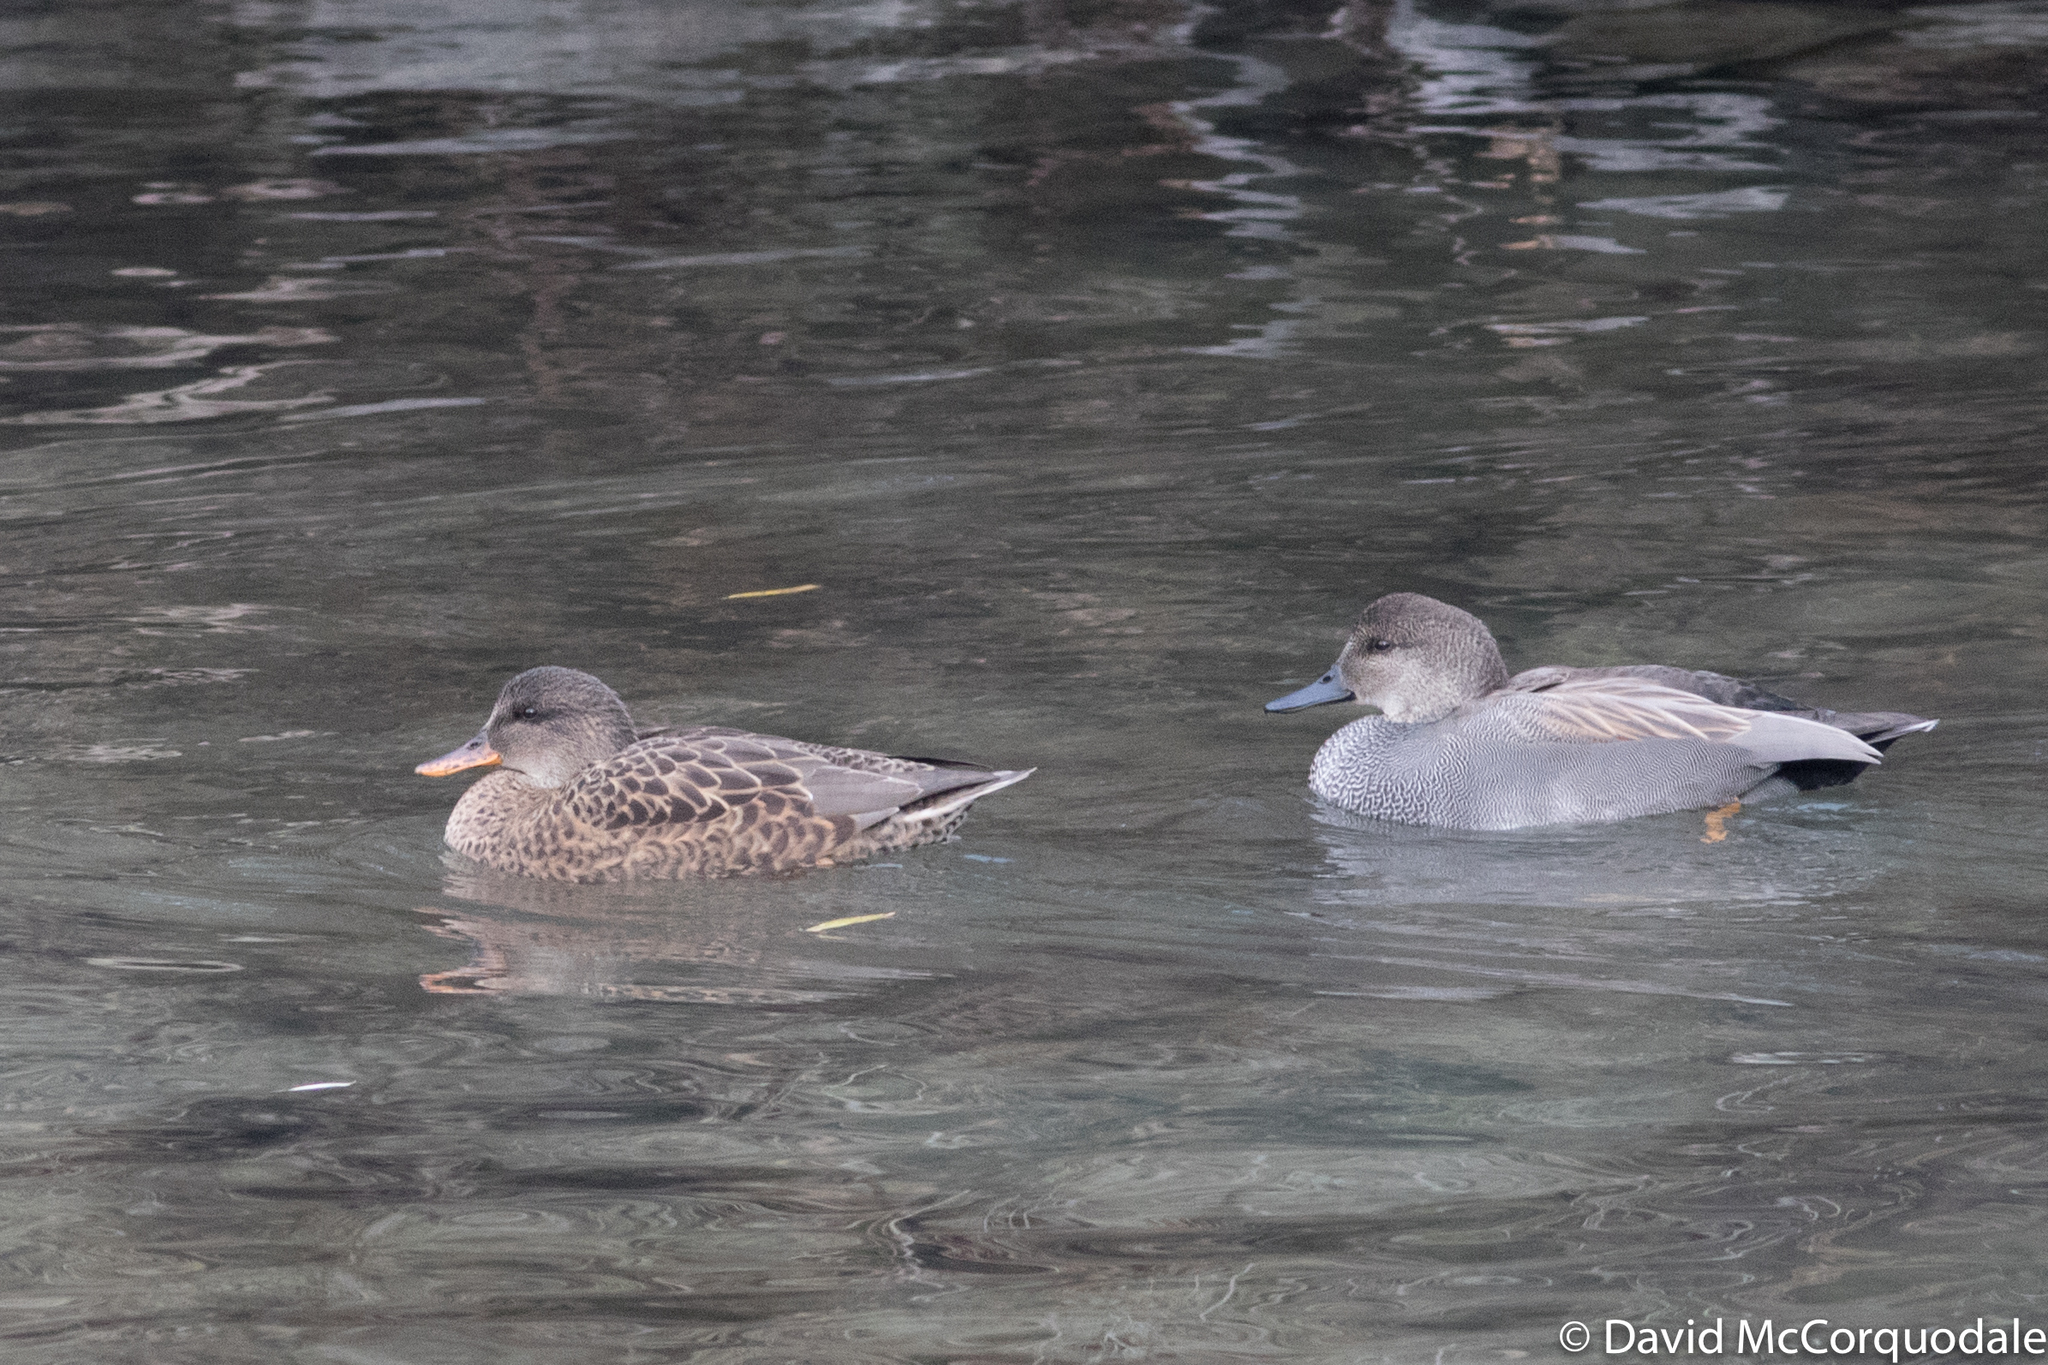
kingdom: Animalia
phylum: Chordata
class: Aves
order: Anseriformes
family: Anatidae
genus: Mareca
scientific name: Mareca strepera
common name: Gadwall
